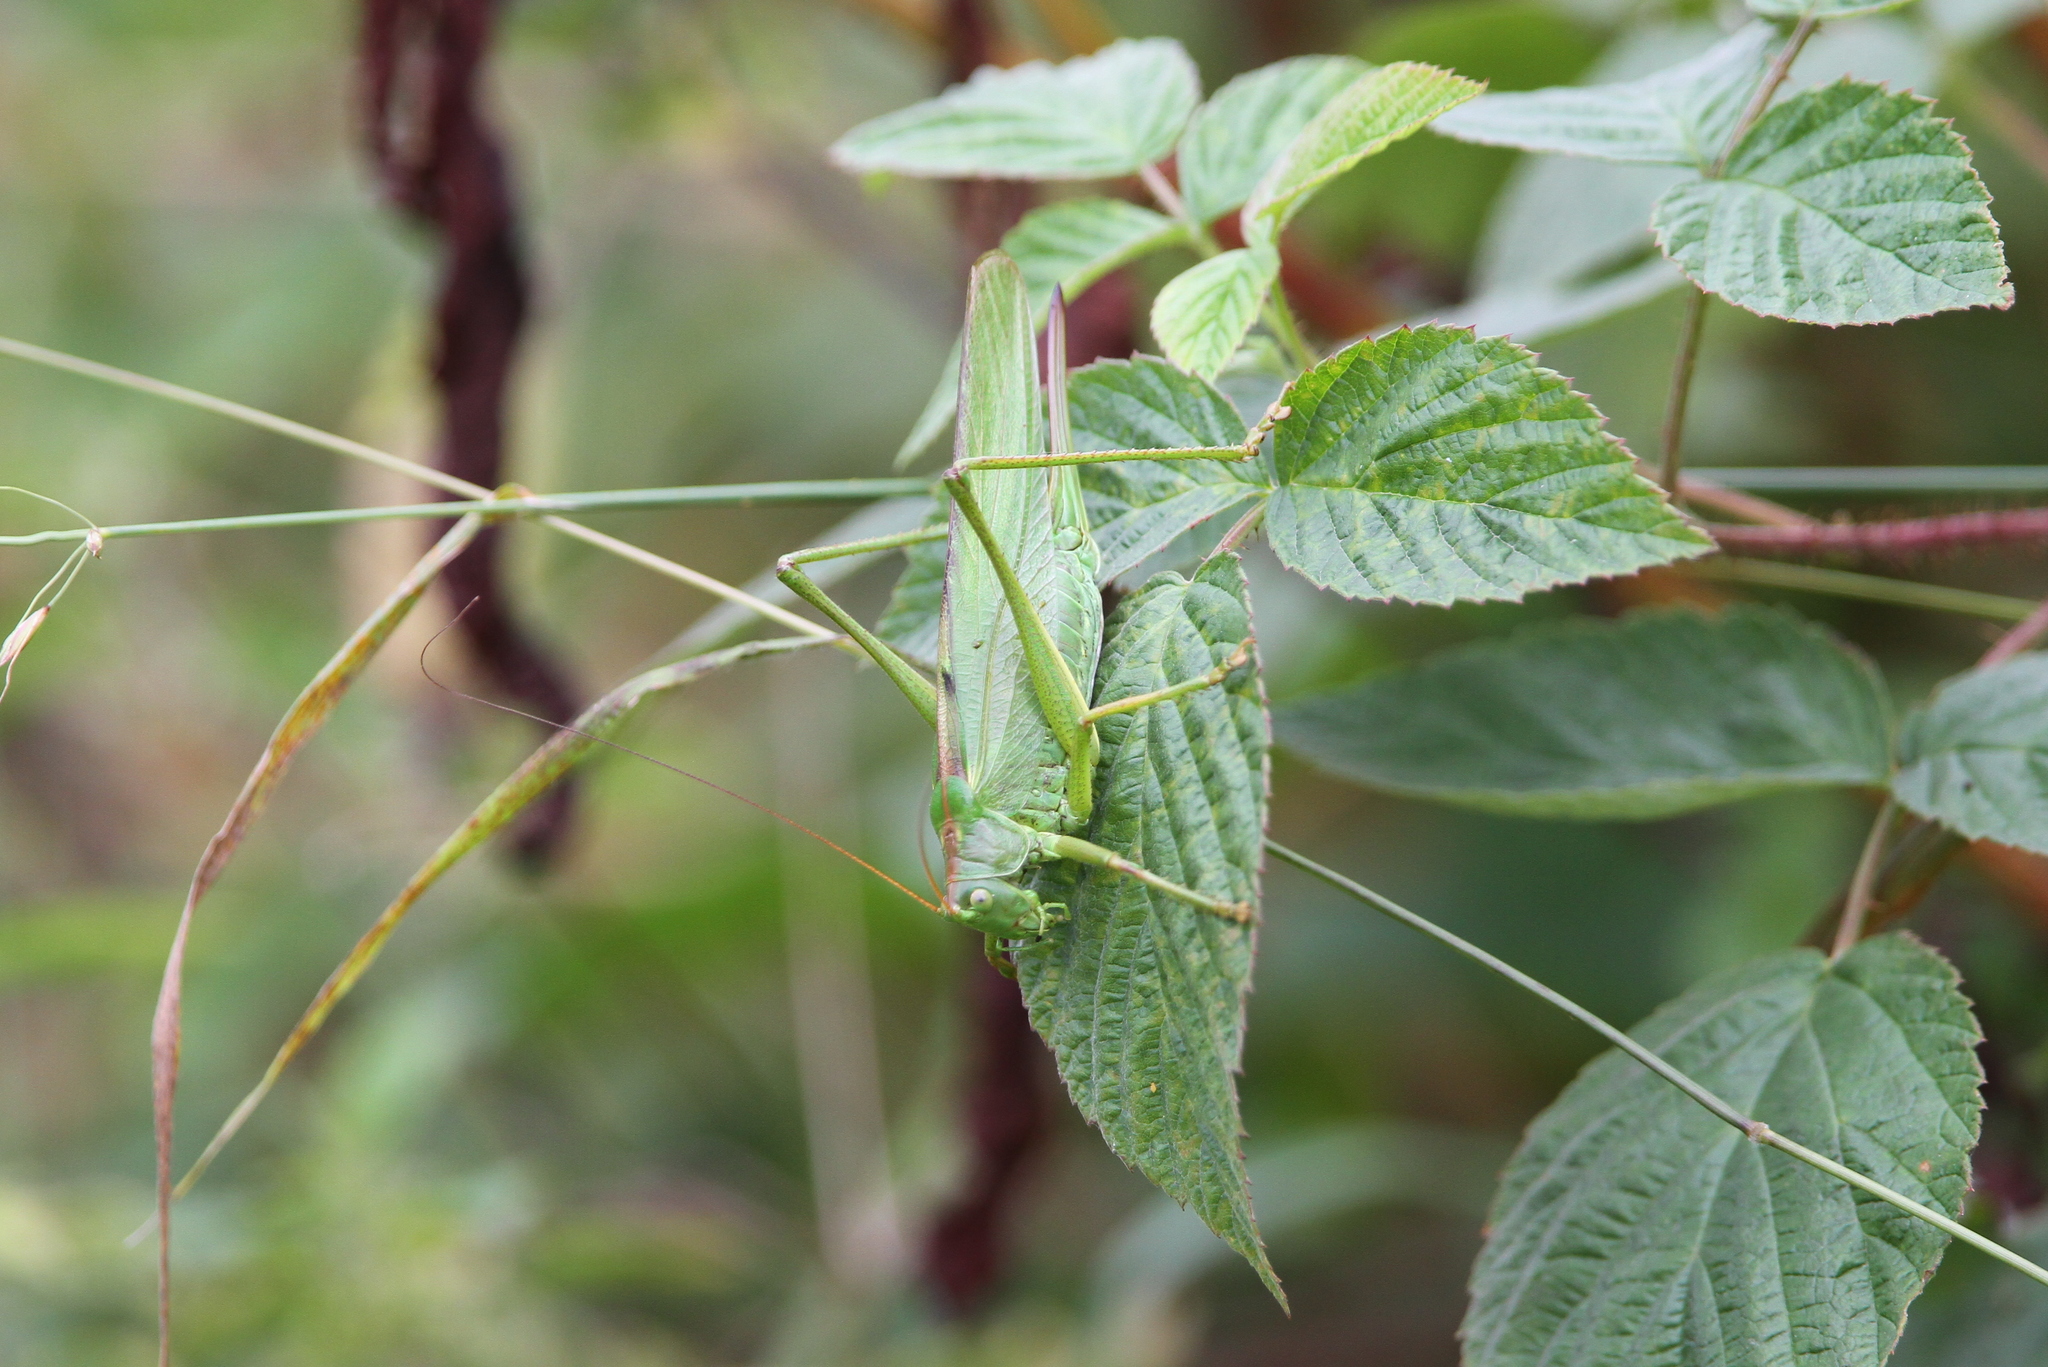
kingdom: Animalia
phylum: Arthropoda
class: Insecta
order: Orthoptera
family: Tettigoniidae
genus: Tettigonia
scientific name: Tettigonia viridissima
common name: Great green bush-cricket
